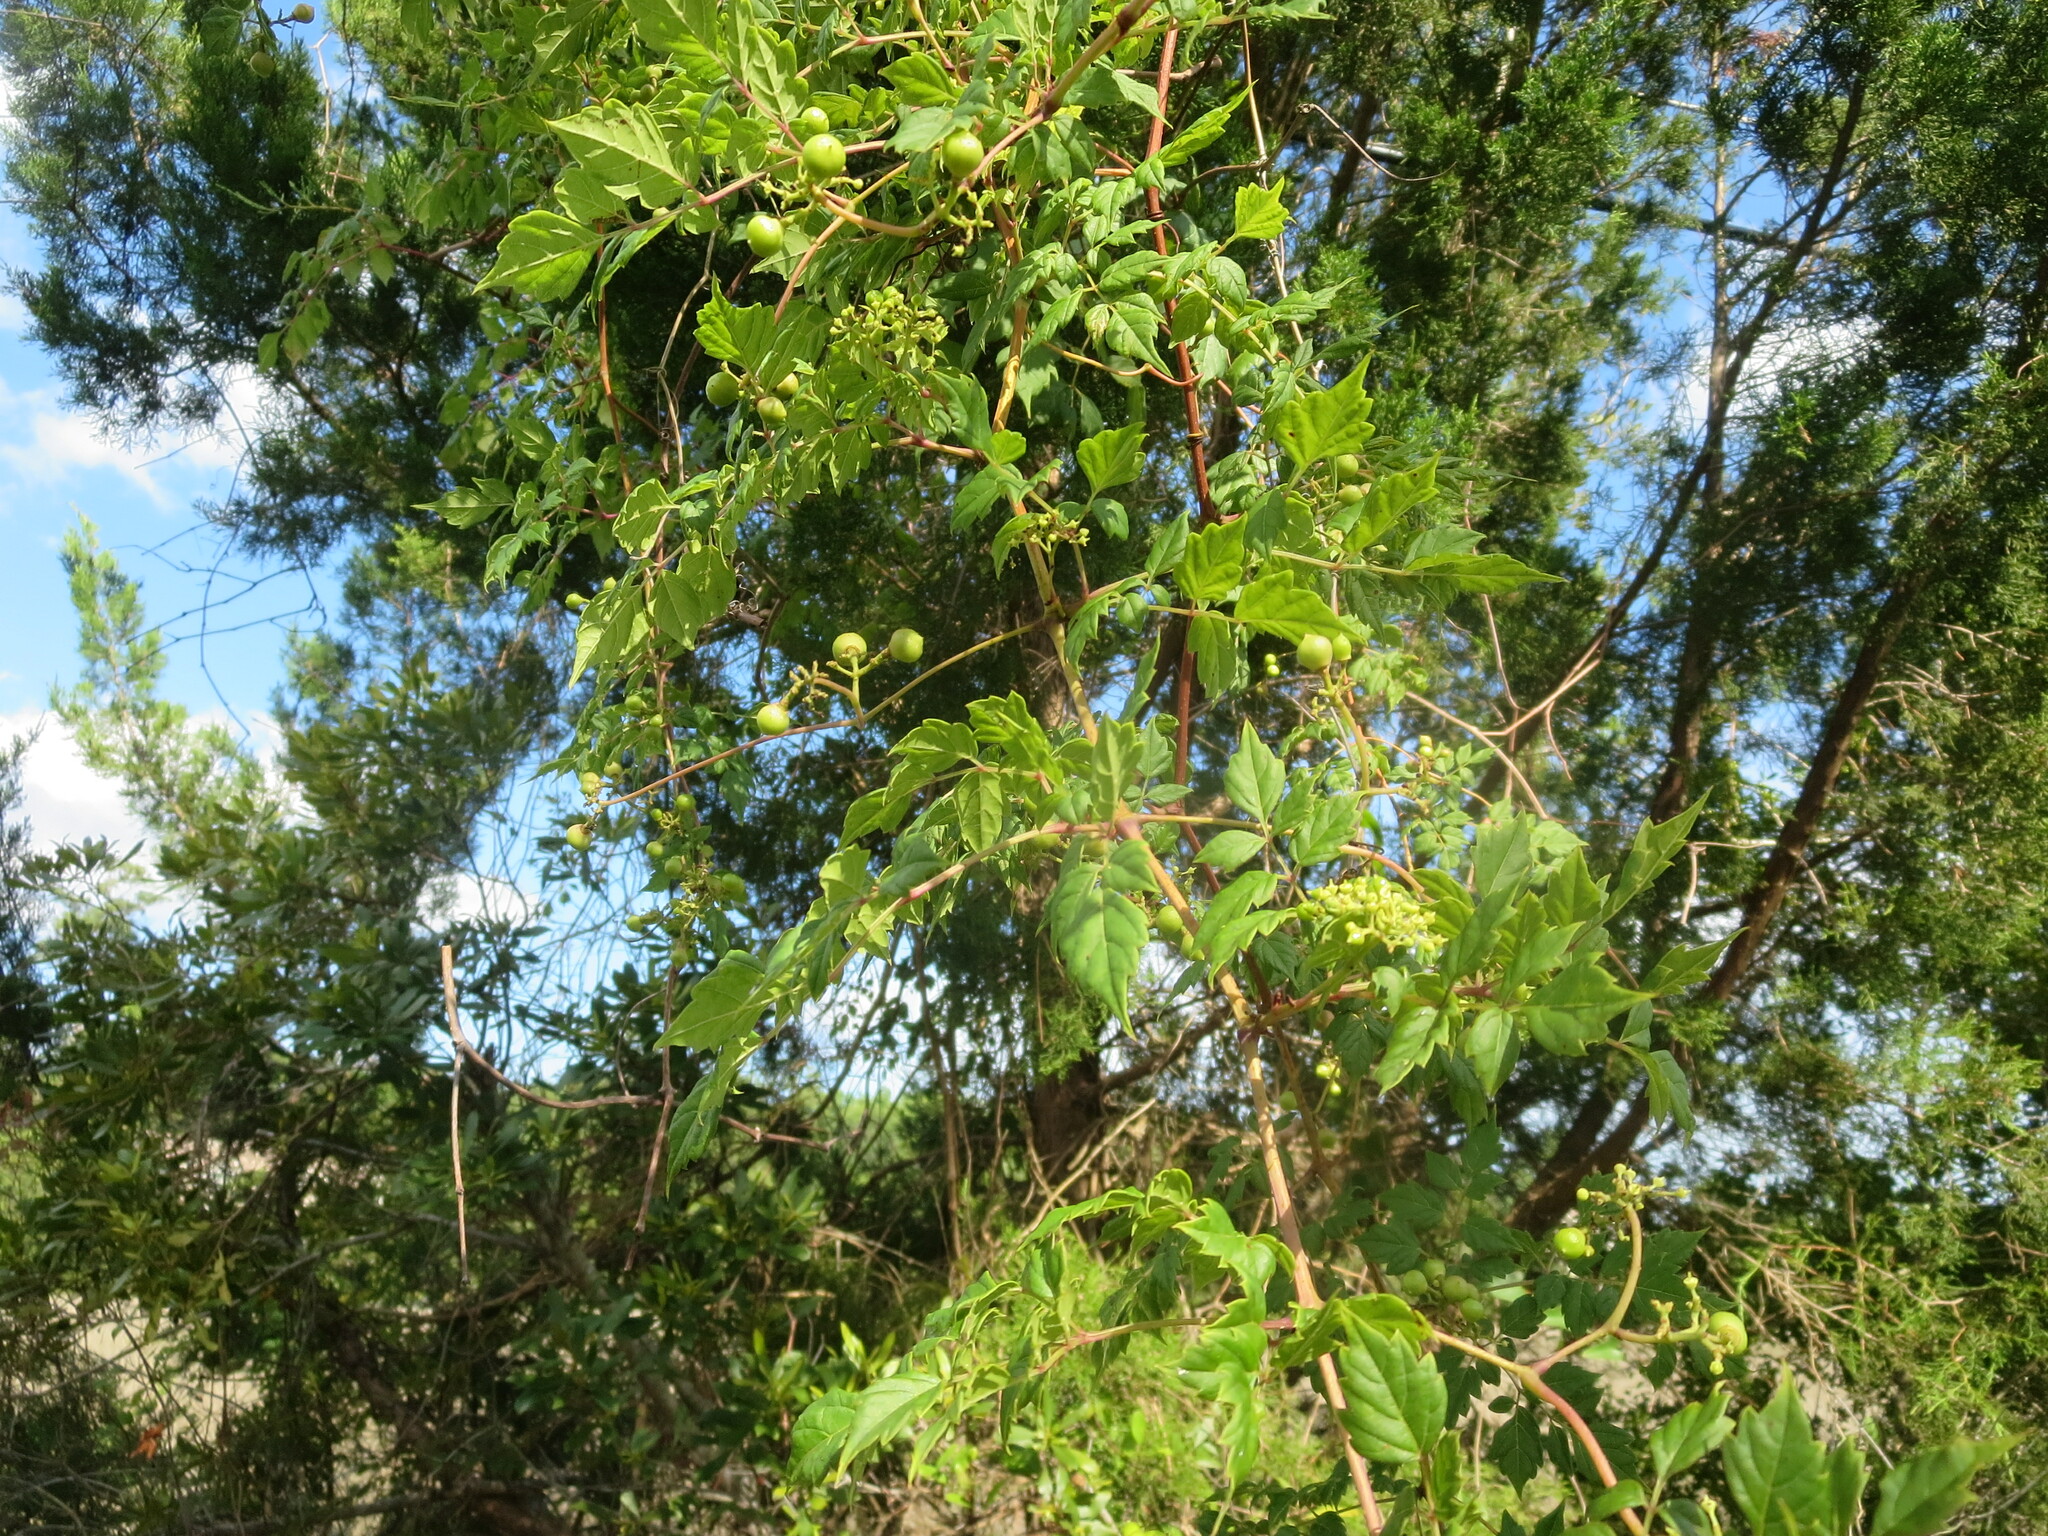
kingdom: Plantae
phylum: Tracheophyta
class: Magnoliopsida
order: Vitales
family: Vitaceae
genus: Nekemias
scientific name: Nekemias arborea
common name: Peppervine
